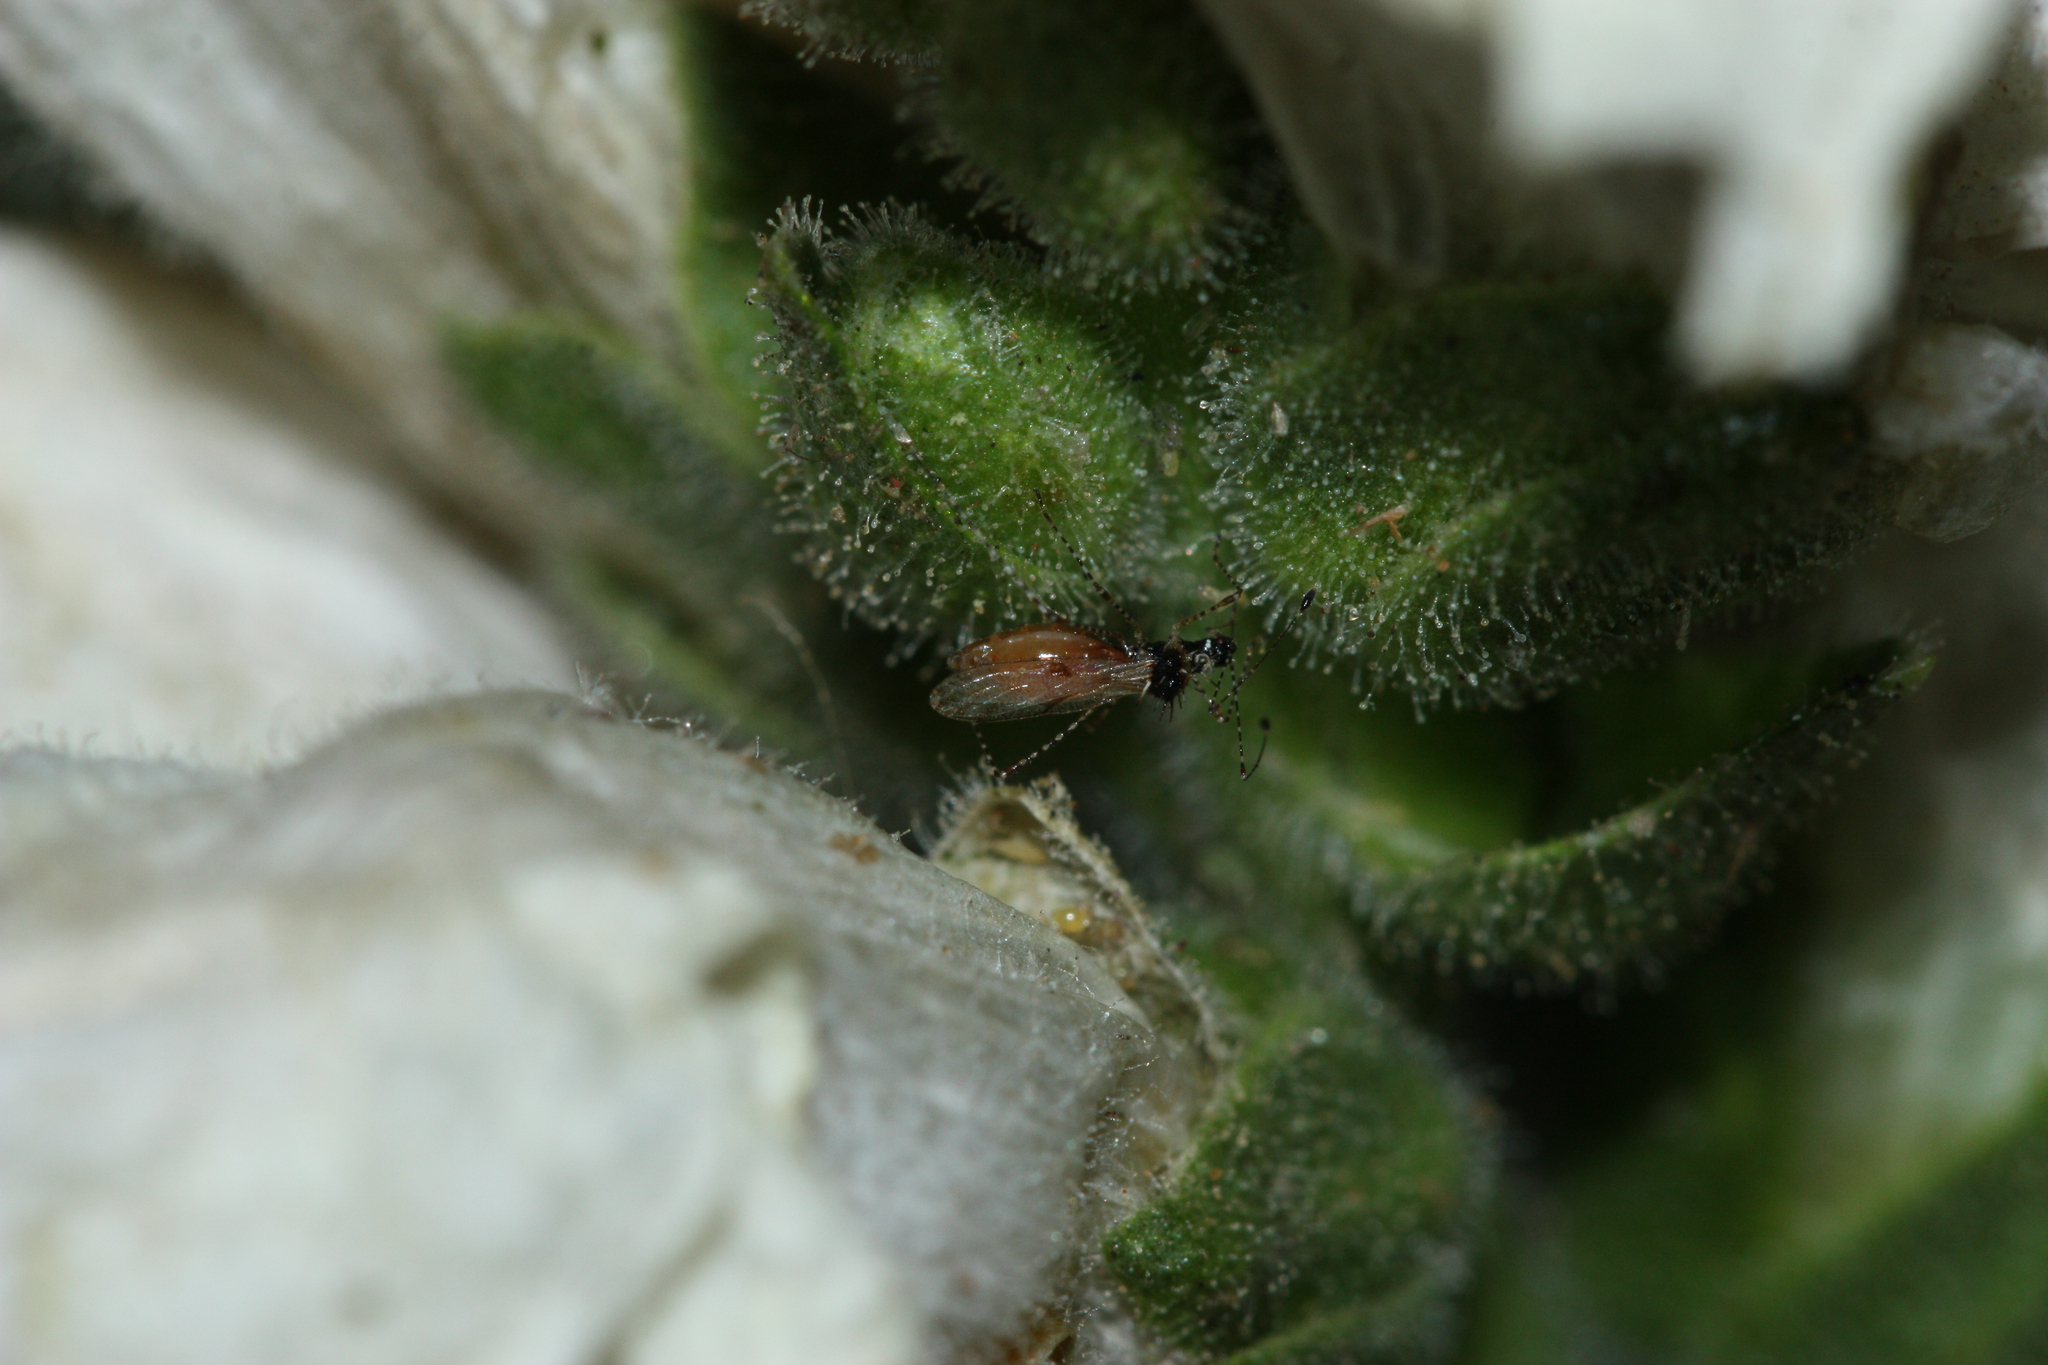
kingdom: Animalia
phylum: Arthropoda
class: Insecta
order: Hemiptera
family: Berytidae
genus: Pronotacantha
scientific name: Pronotacantha annulata
